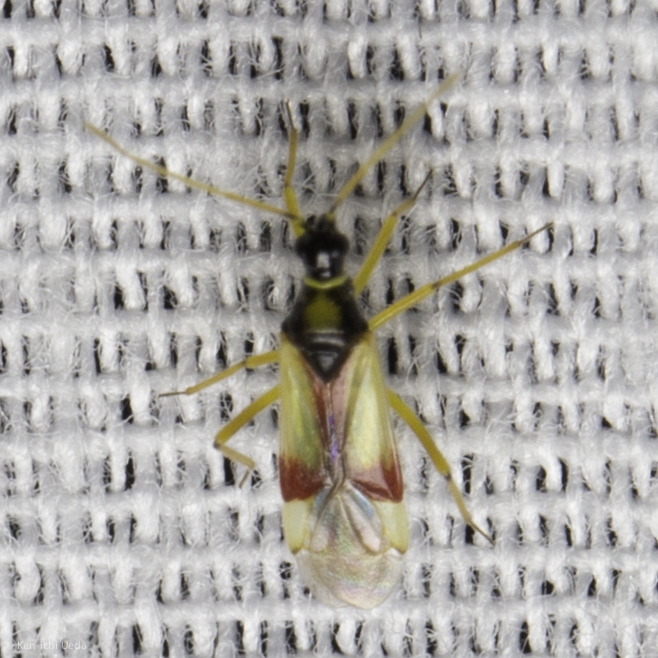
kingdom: Animalia
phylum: Arthropoda
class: Insecta
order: Hemiptera
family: Miridae
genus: Tupiocoris
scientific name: Tupiocoris californicus
